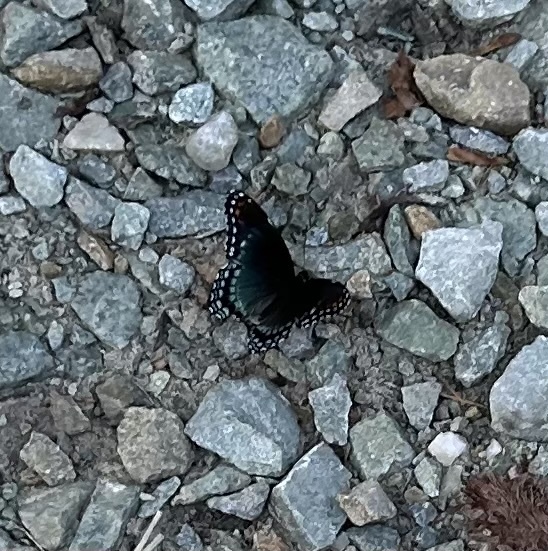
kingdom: Animalia
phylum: Arthropoda
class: Insecta
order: Lepidoptera
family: Nymphalidae
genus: Limenitis
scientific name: Limenitis astyanax
